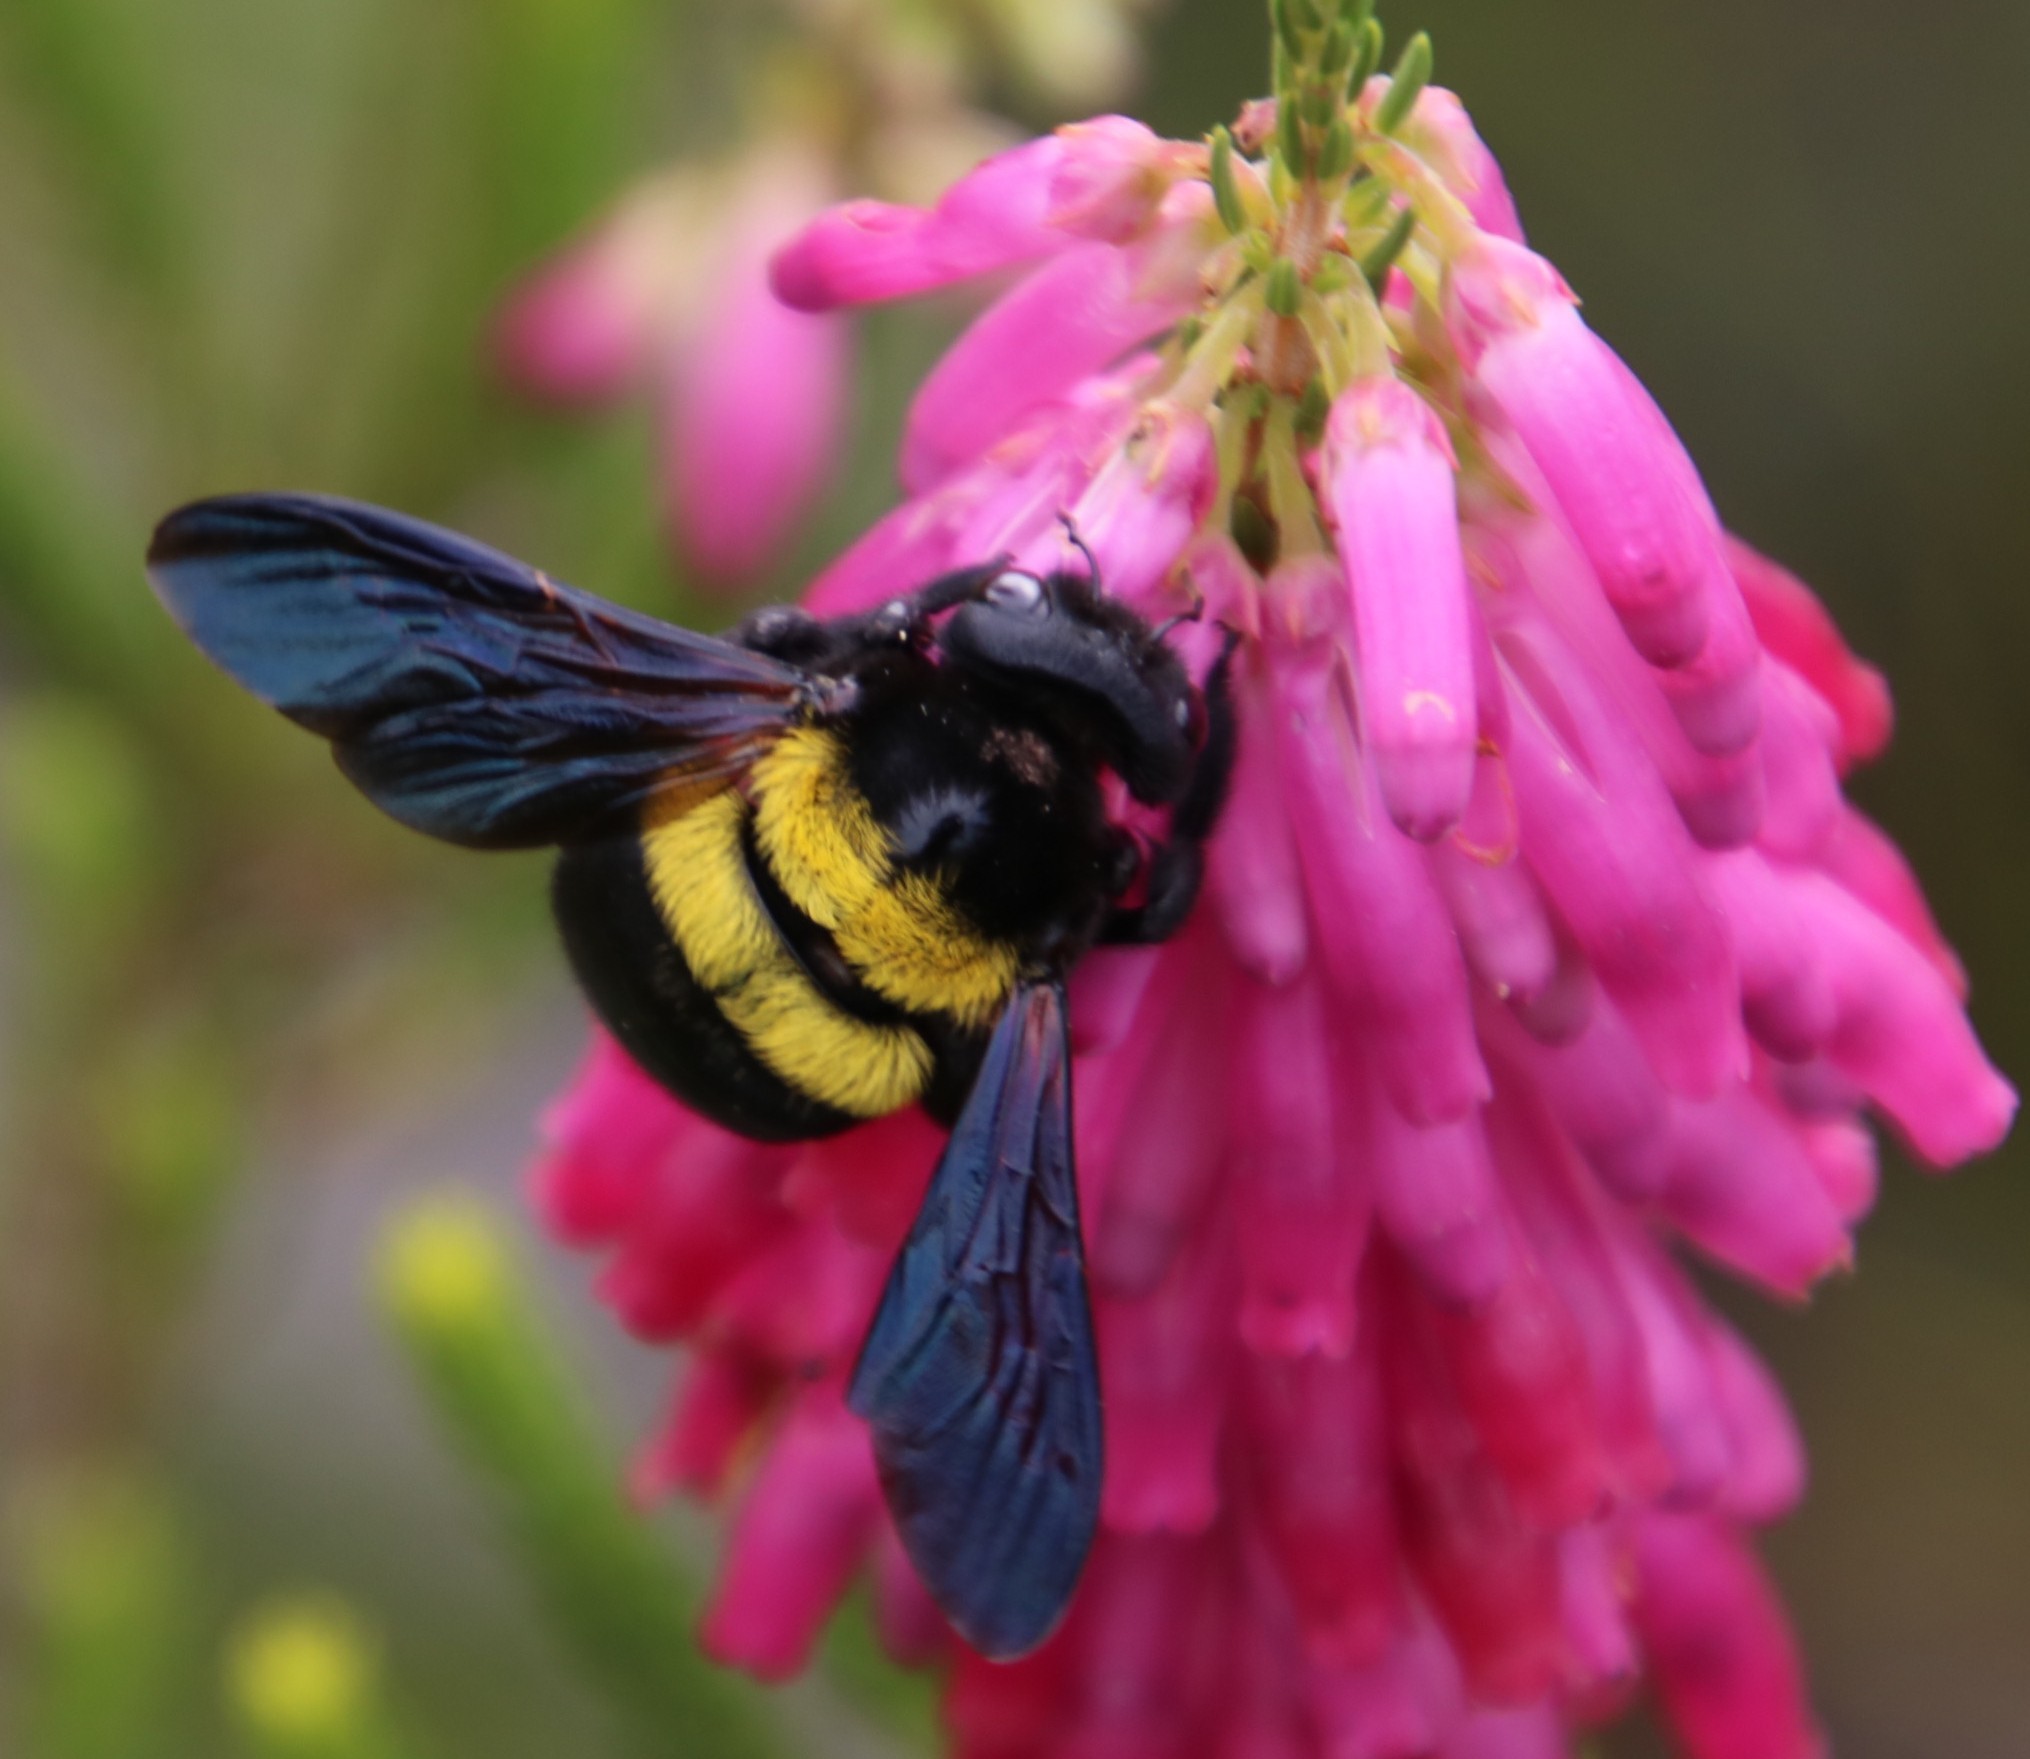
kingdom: Animalia
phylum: Arthropoda
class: Insecta
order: Hymenoptera
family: Apidae
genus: Xylocopa
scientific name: Xylocopa caffra
